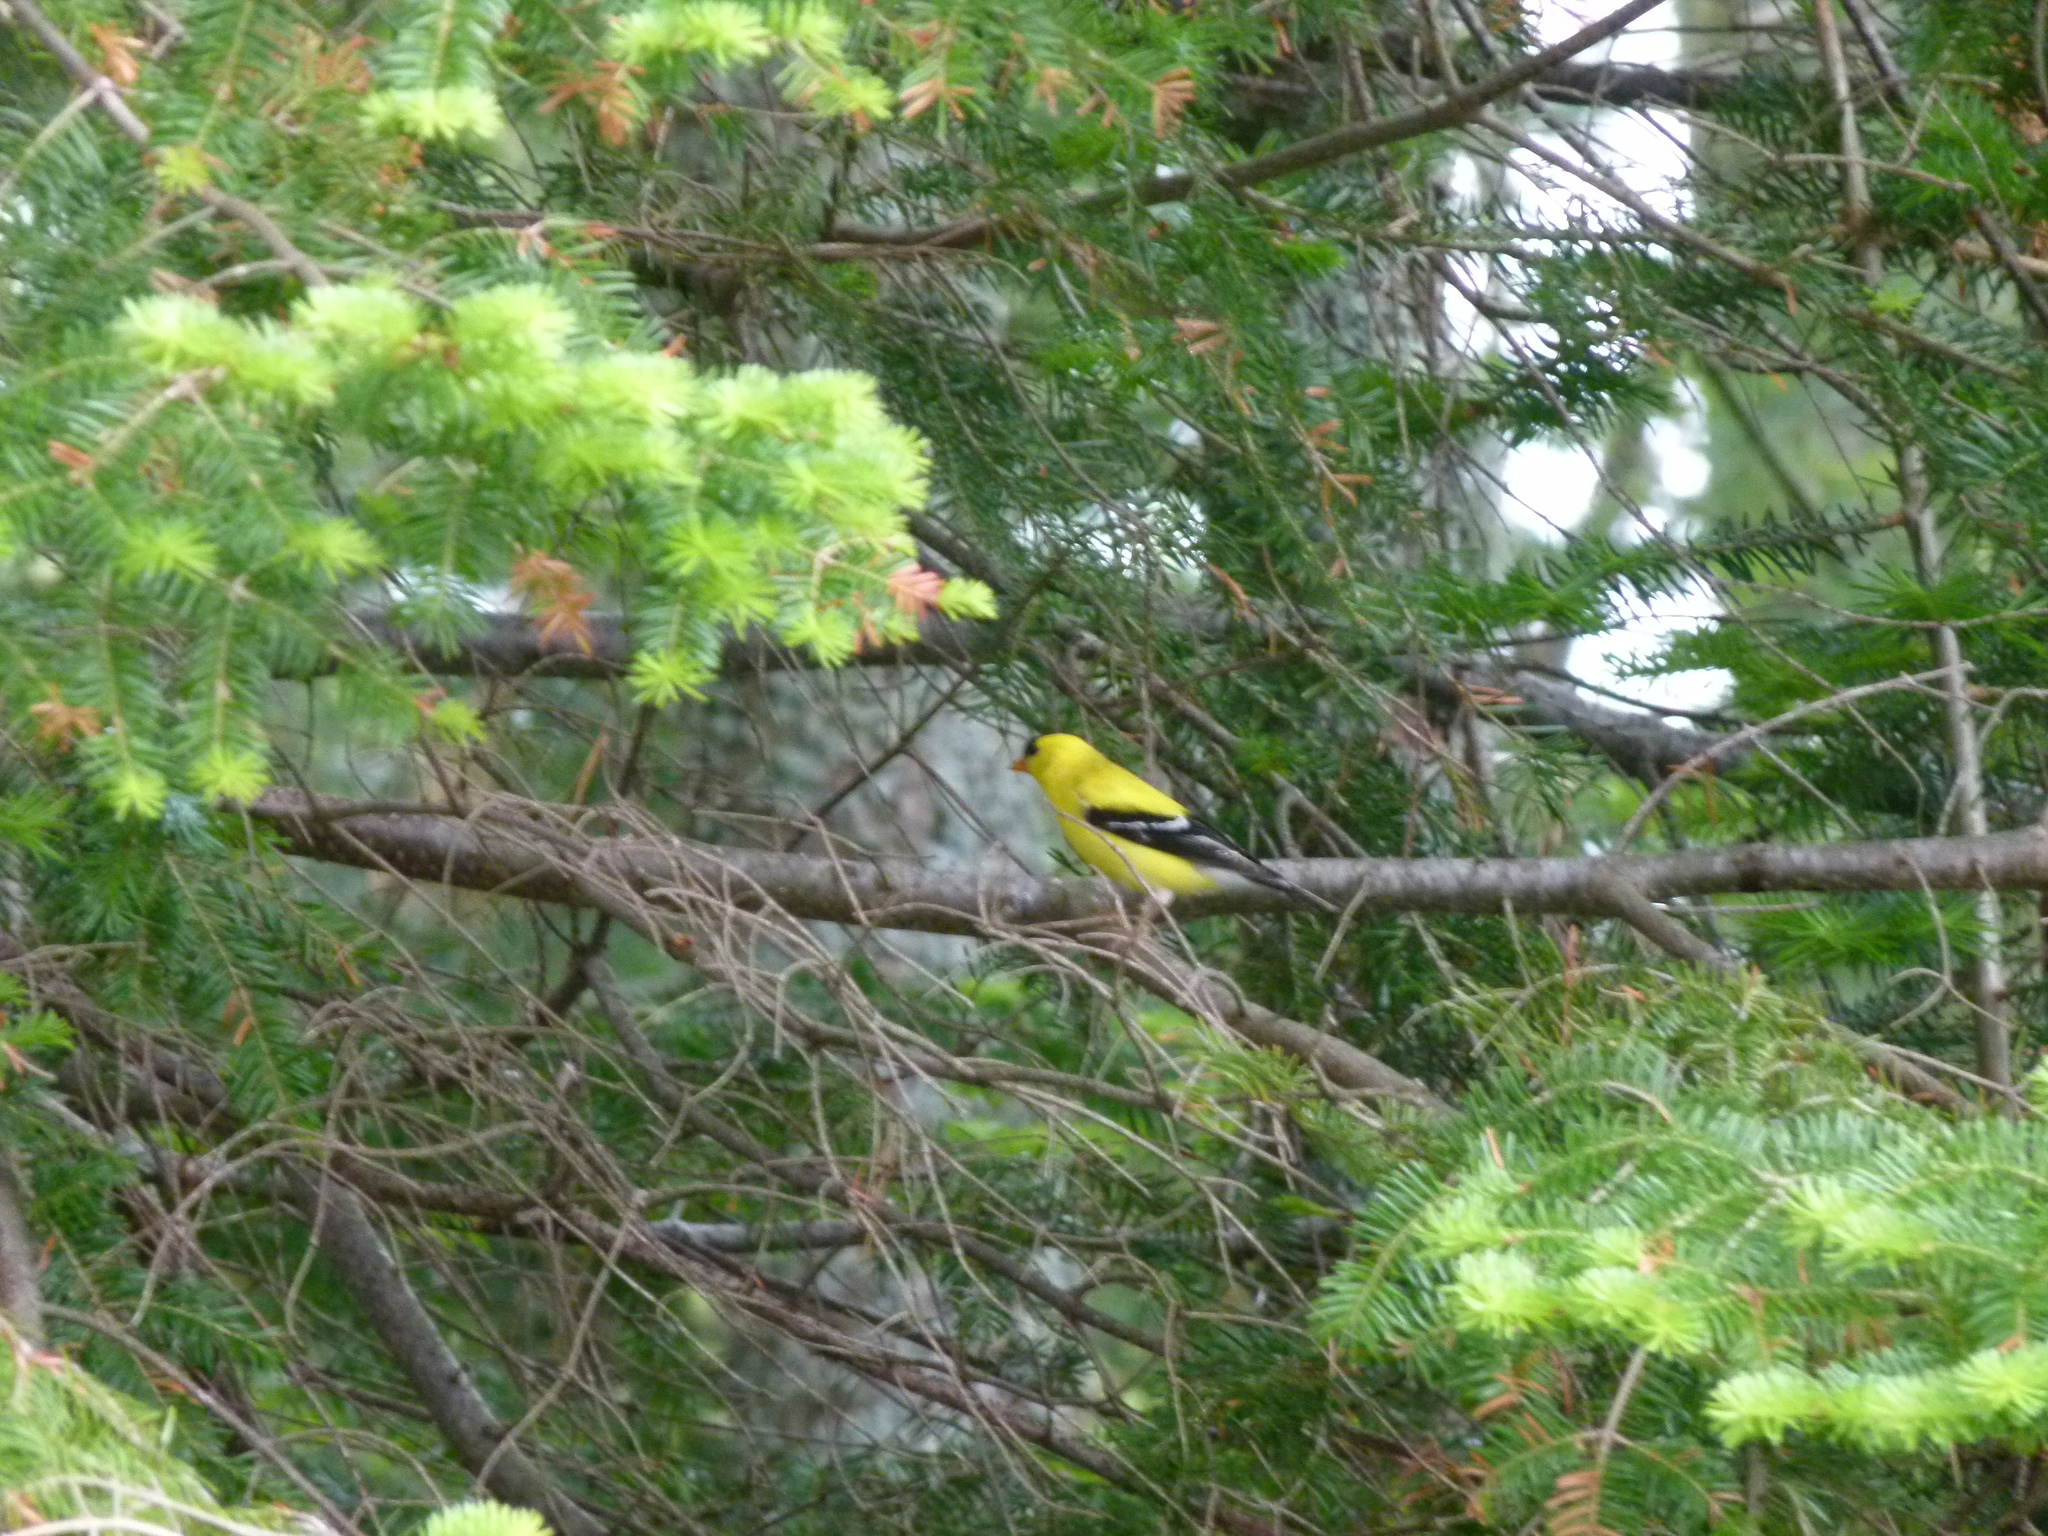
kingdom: Animalia
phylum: Chordata
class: Aves
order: Passeriformes
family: Fringillidae
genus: Spinus
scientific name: Spinus tristis
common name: American goldfinch
